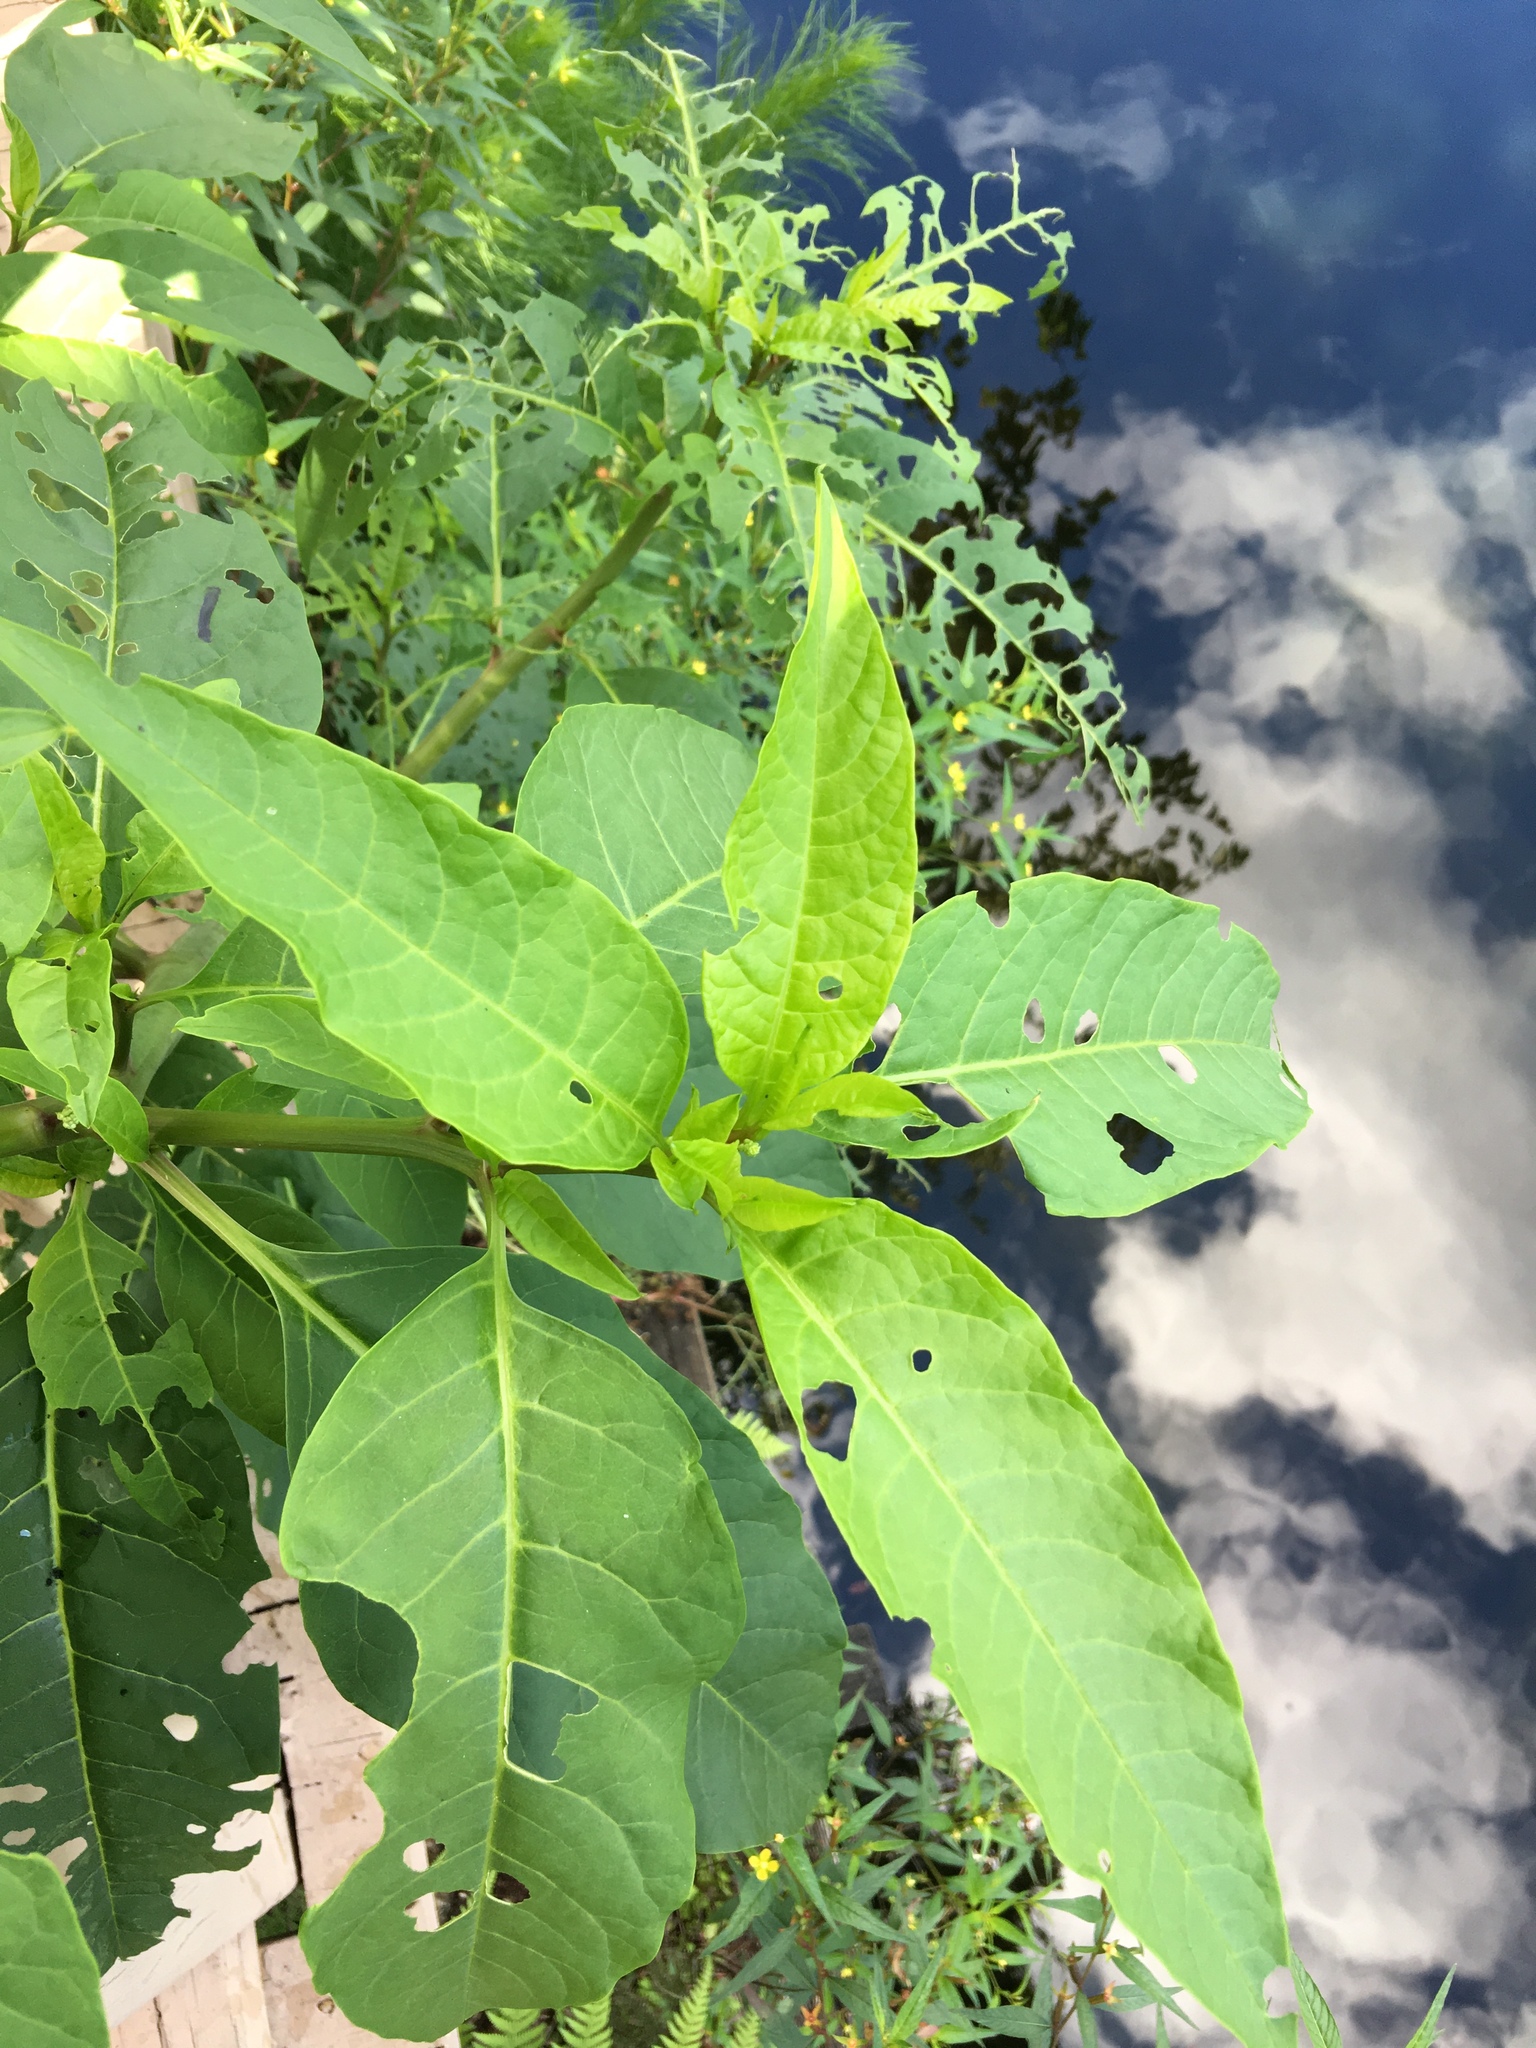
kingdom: Plantae
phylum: Tracheophyta
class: Magnoliopsida
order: Caryophyllales
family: Phytolaccaceae
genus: Phytolacca
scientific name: Phytolacca americana
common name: American pokeweed
